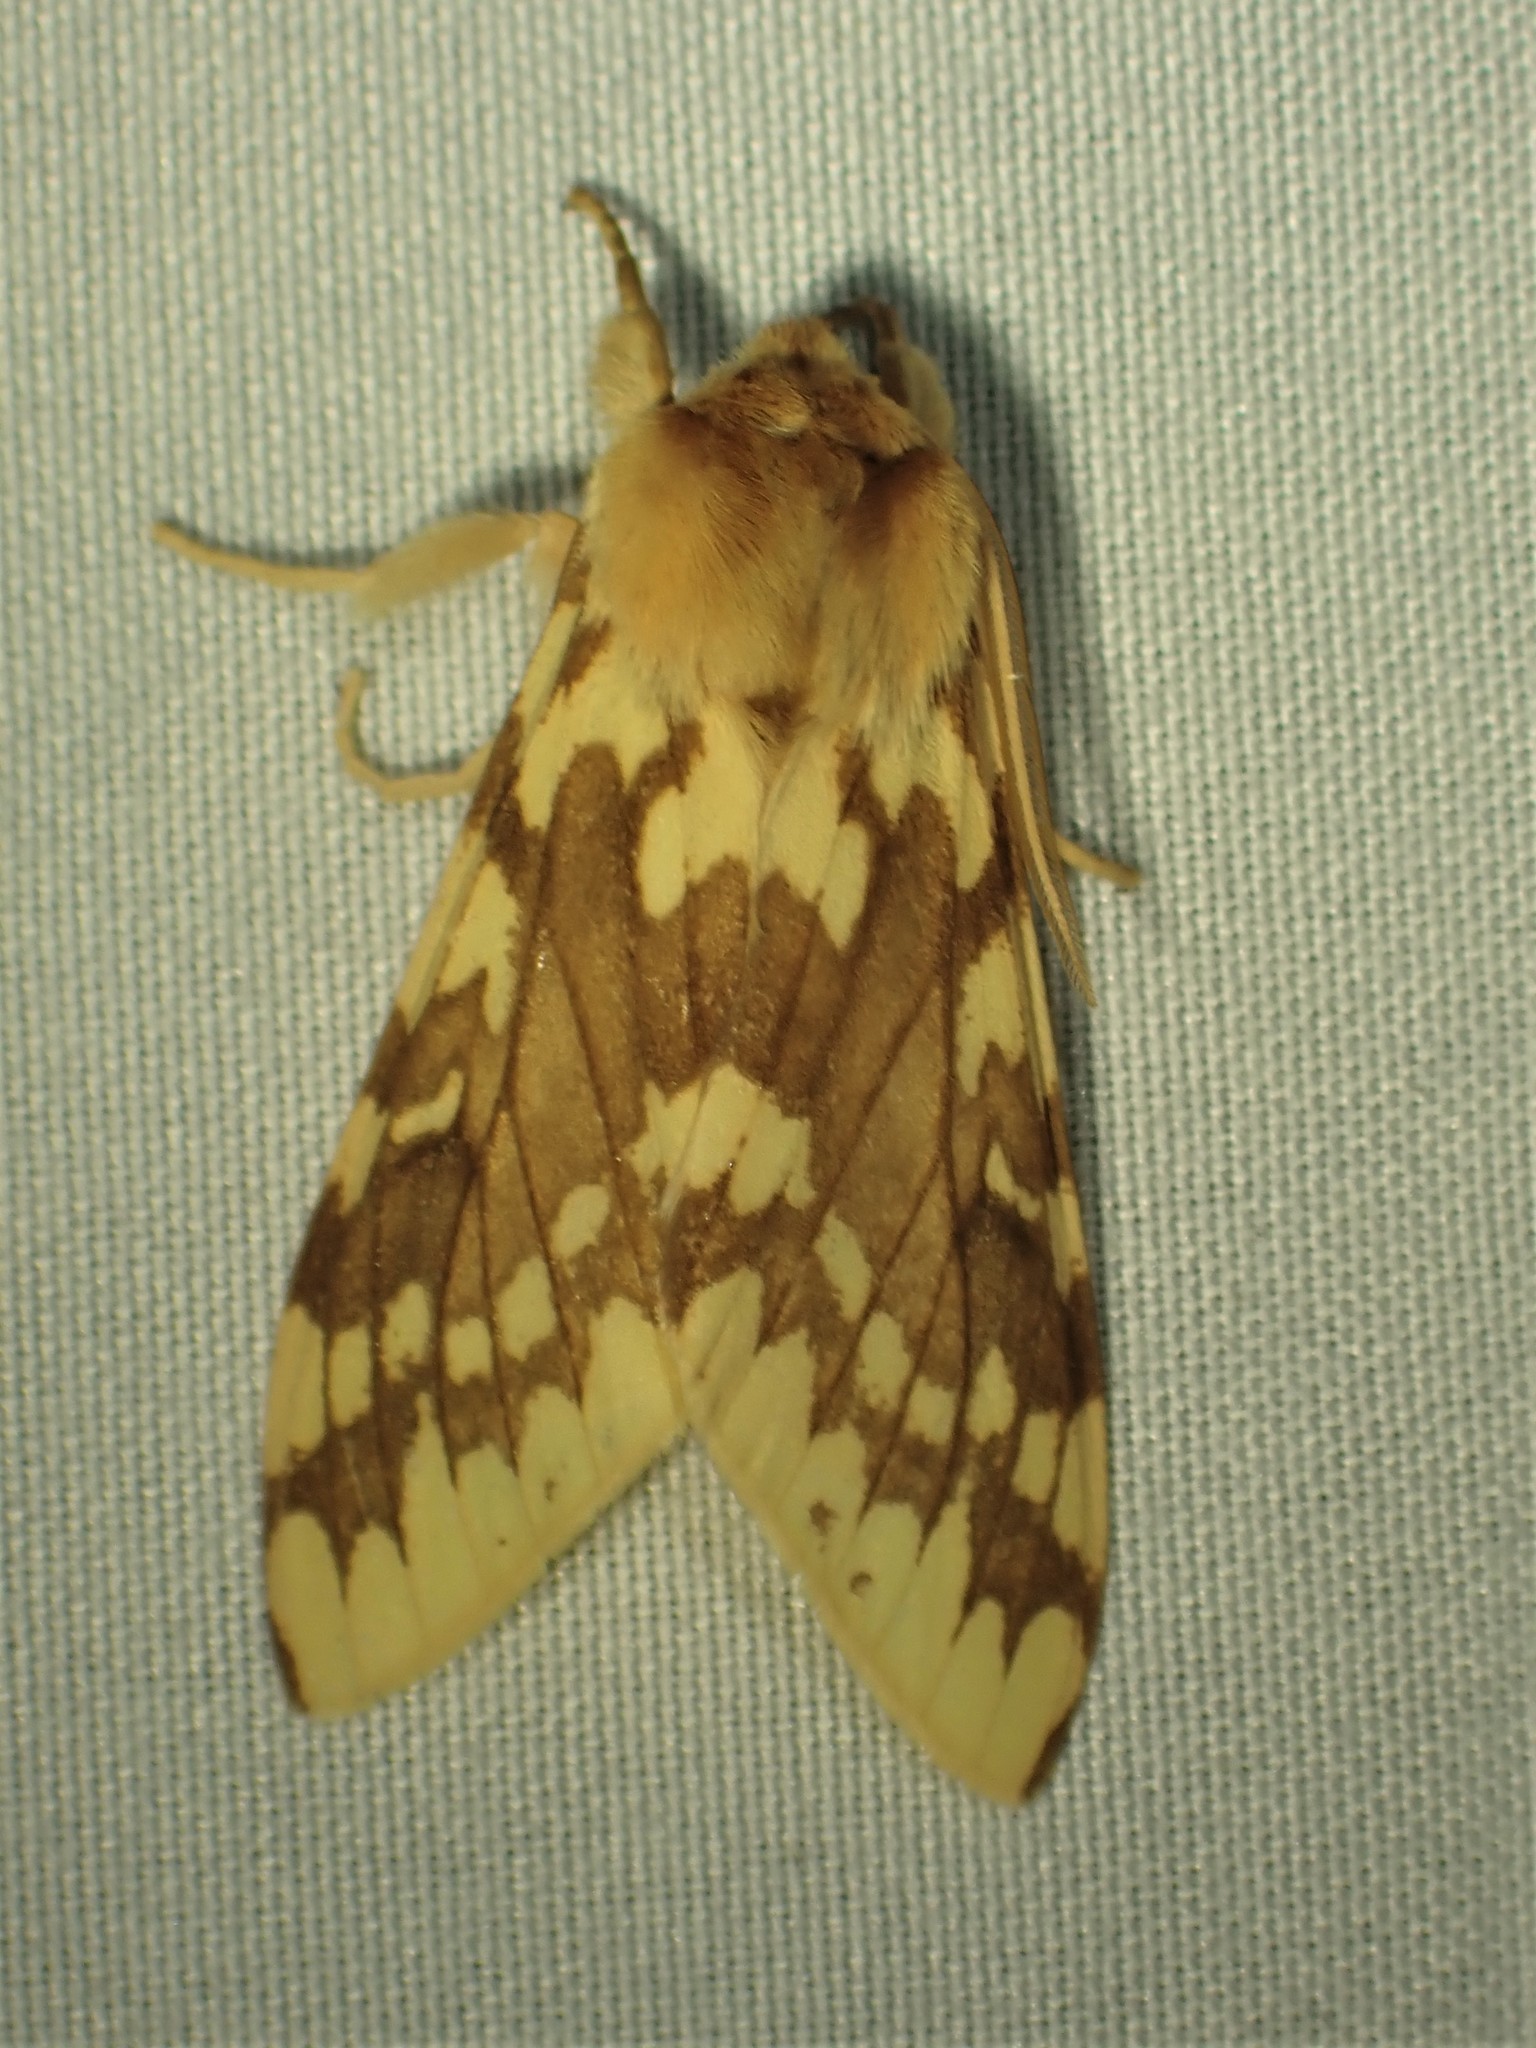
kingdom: Animalia
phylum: Arthropoda
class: Insecta
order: Lepidoptera
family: Erebidae
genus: Lophocampa
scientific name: Lophocampa maculata
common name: Spotted tussock moth
